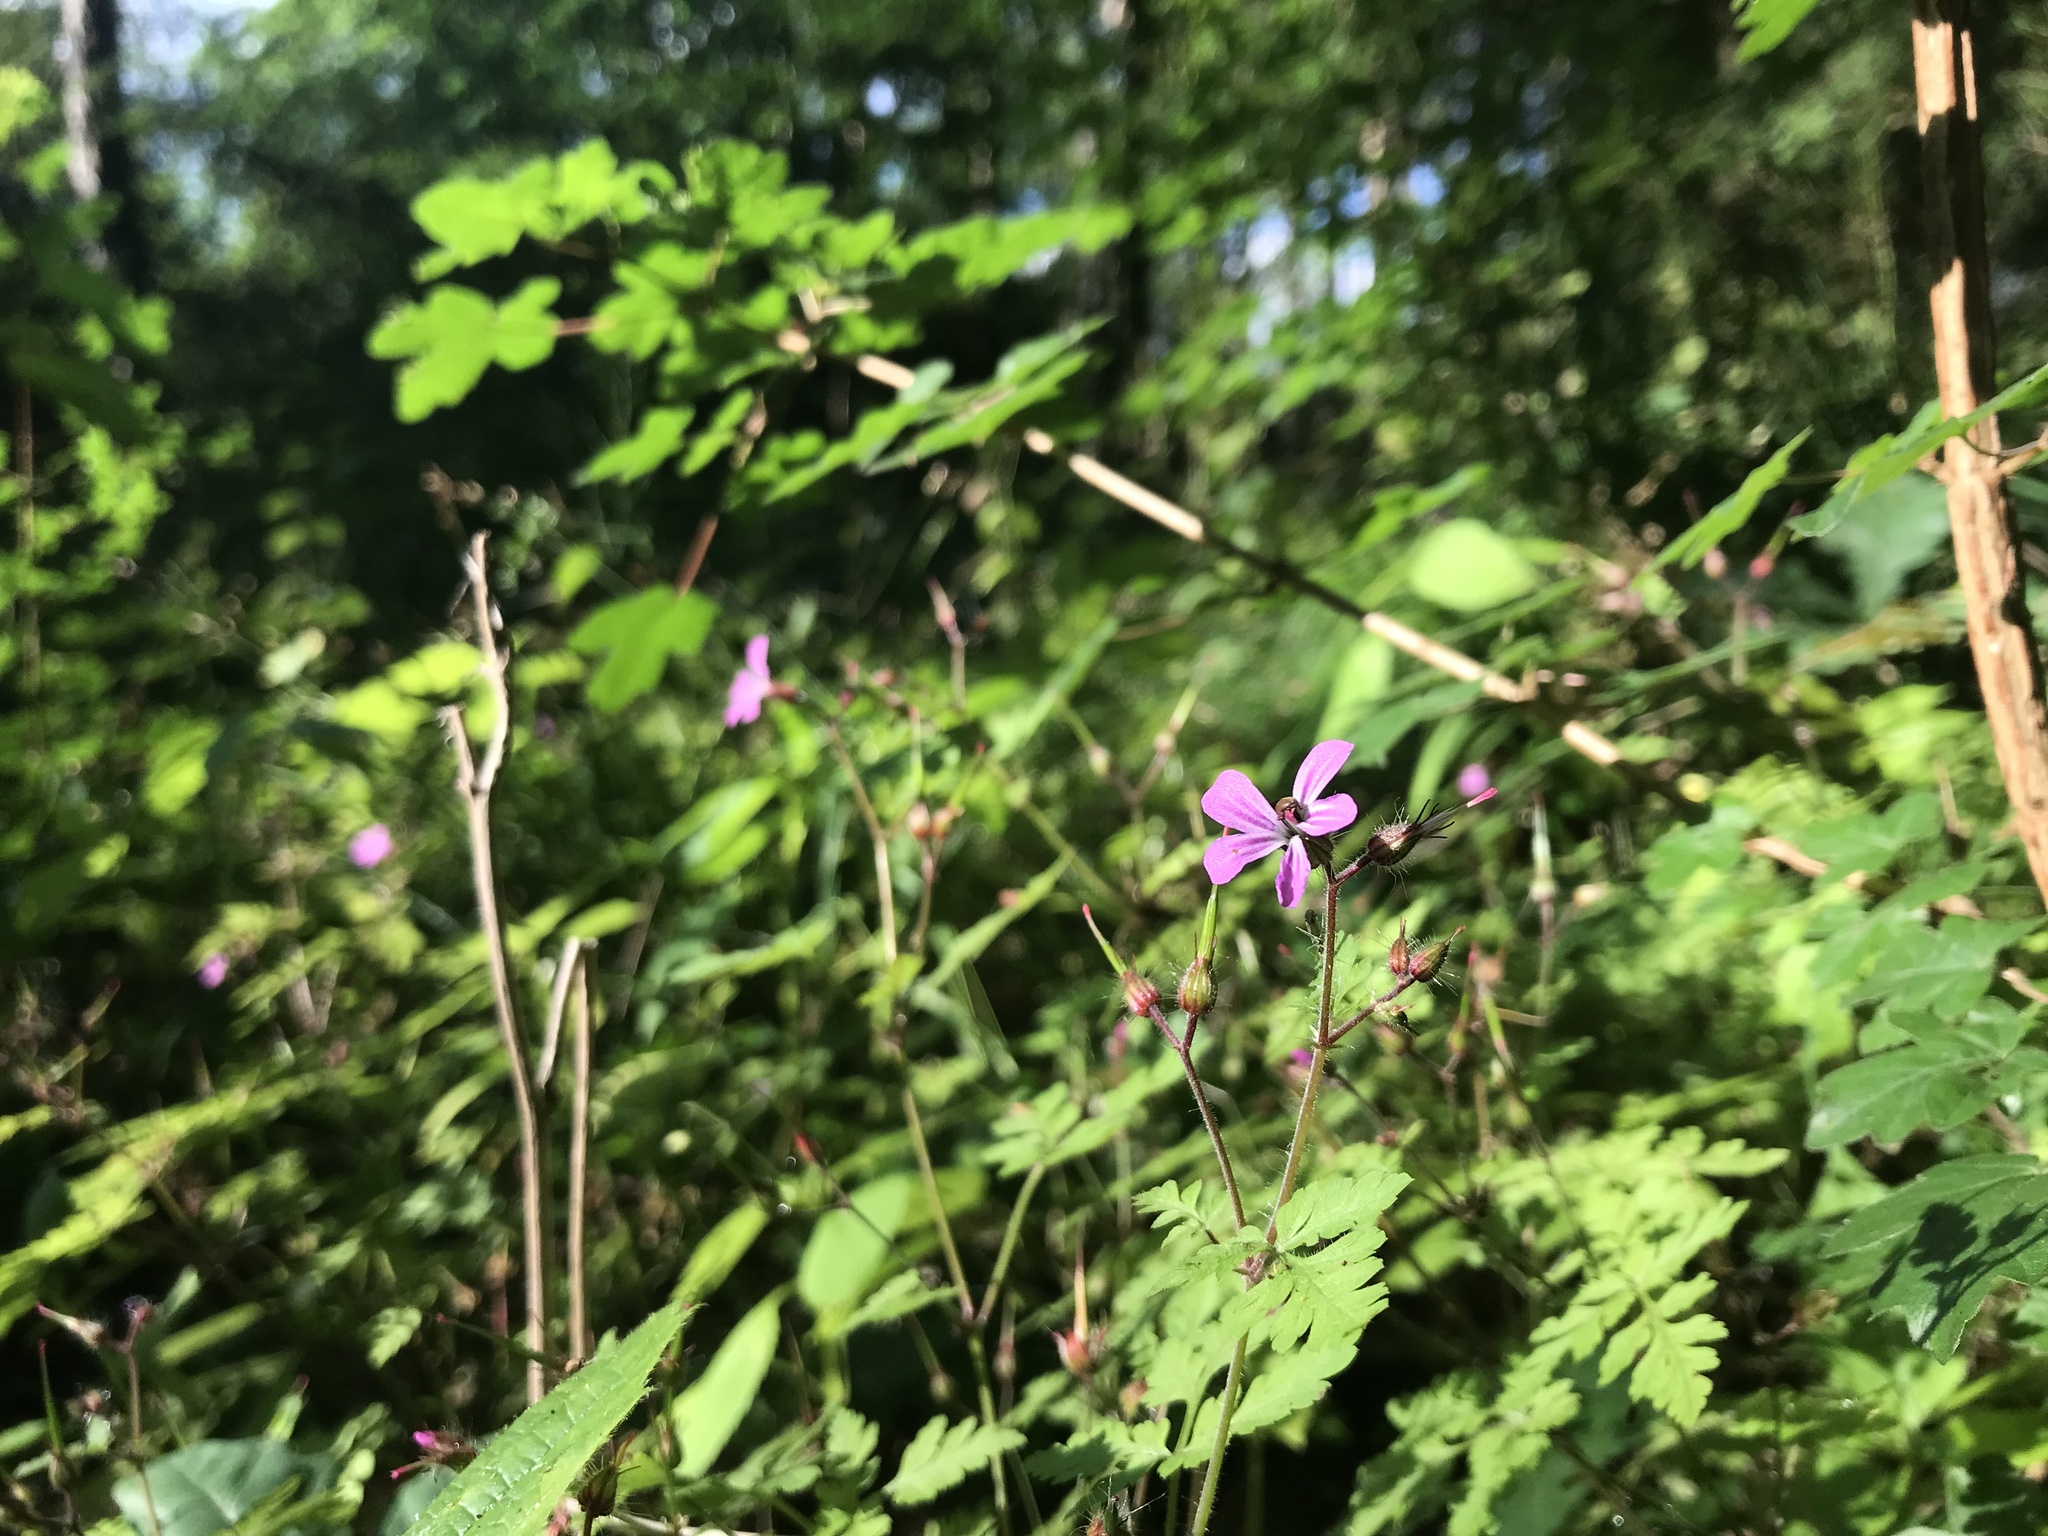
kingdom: Plantae
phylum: Tracheophyta
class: Magnoliopsida
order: Geraniales
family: Geraniaceae
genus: Geranium
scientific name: Geranium robertianum
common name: Herb-robert
